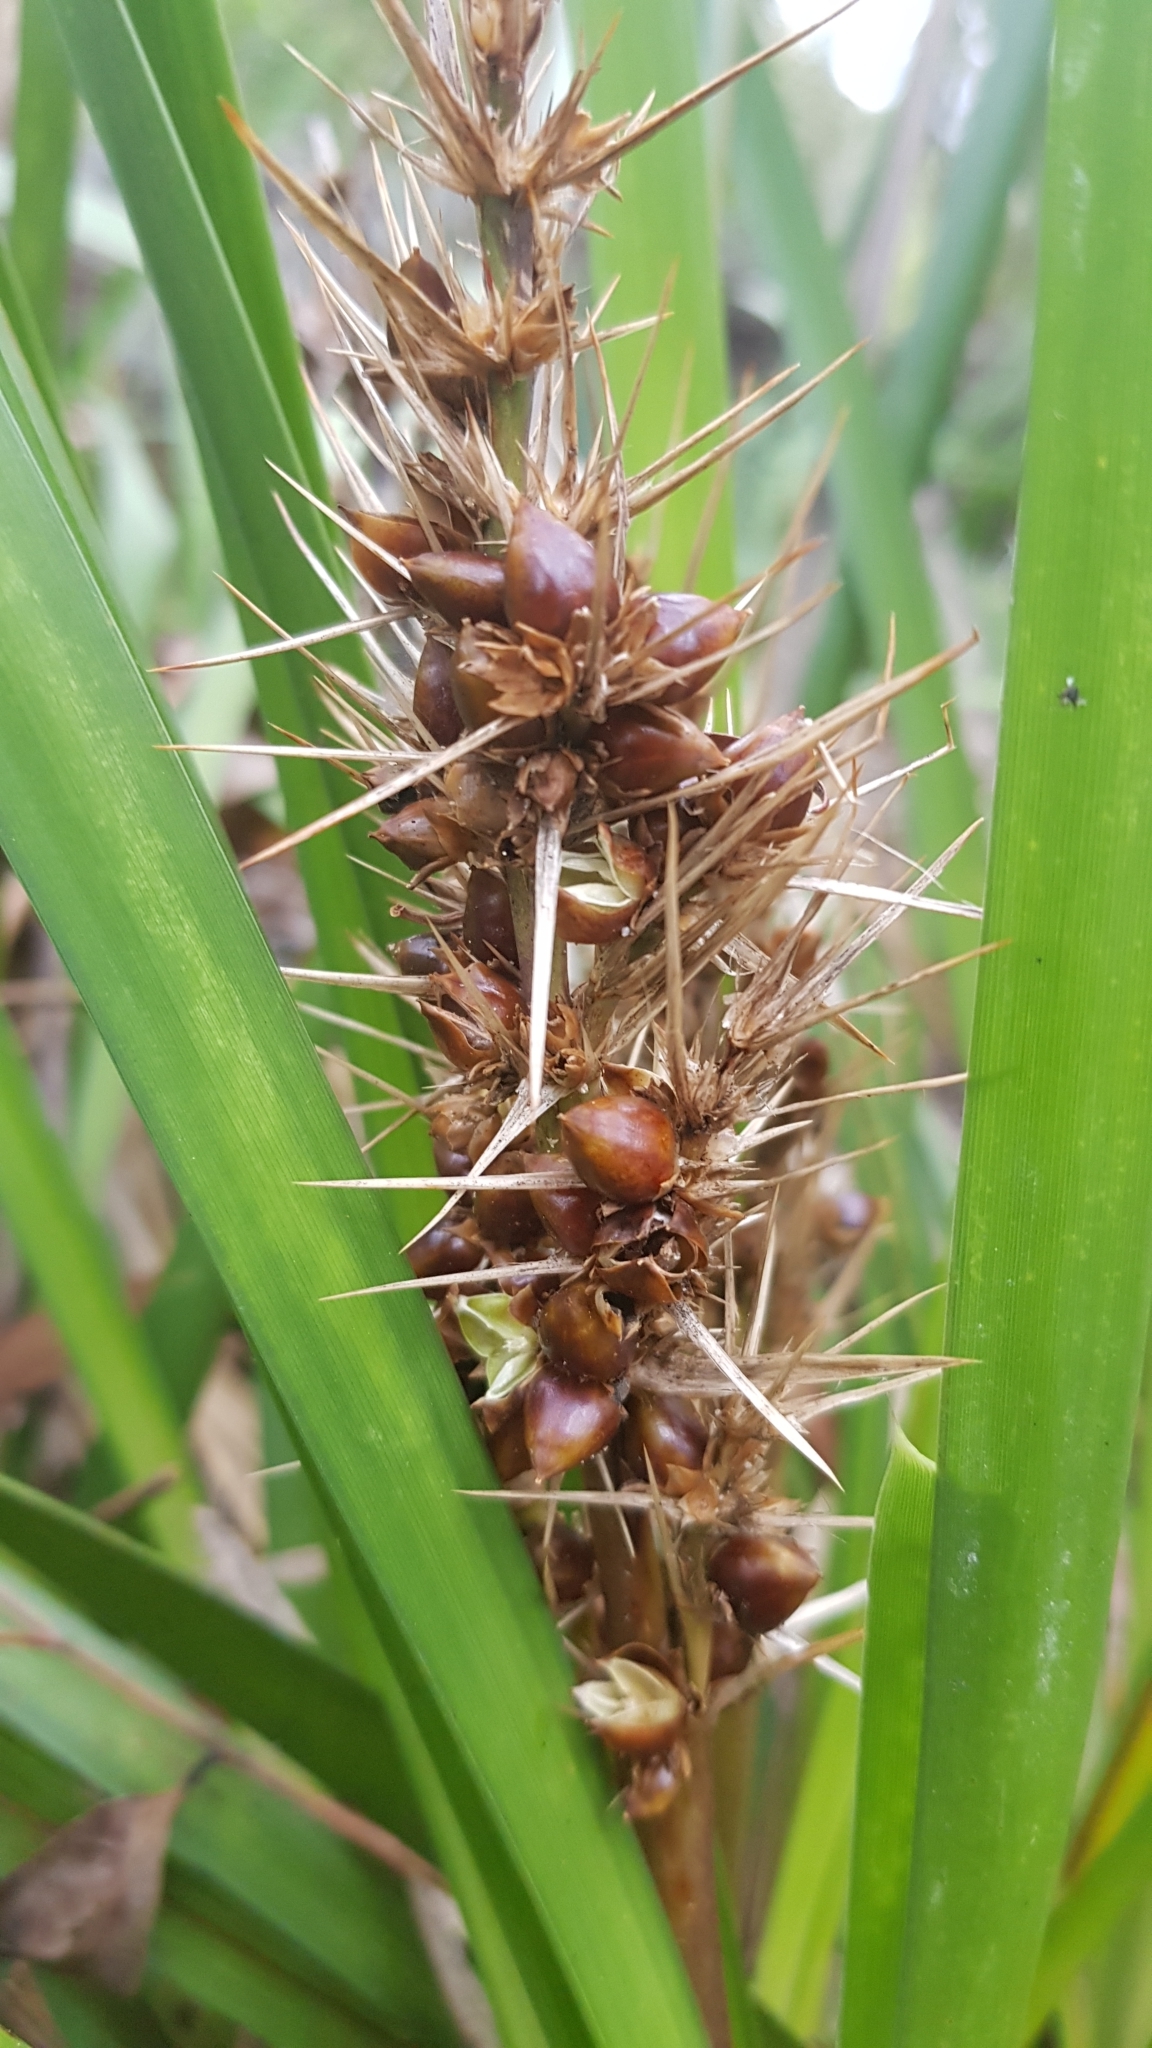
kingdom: Plantae
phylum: Tracheophyta
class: Liliopsida
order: Asparagales
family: Asparagaceae
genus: Lomandra
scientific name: Lomandra longifolia
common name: Longleaf mat-rush
